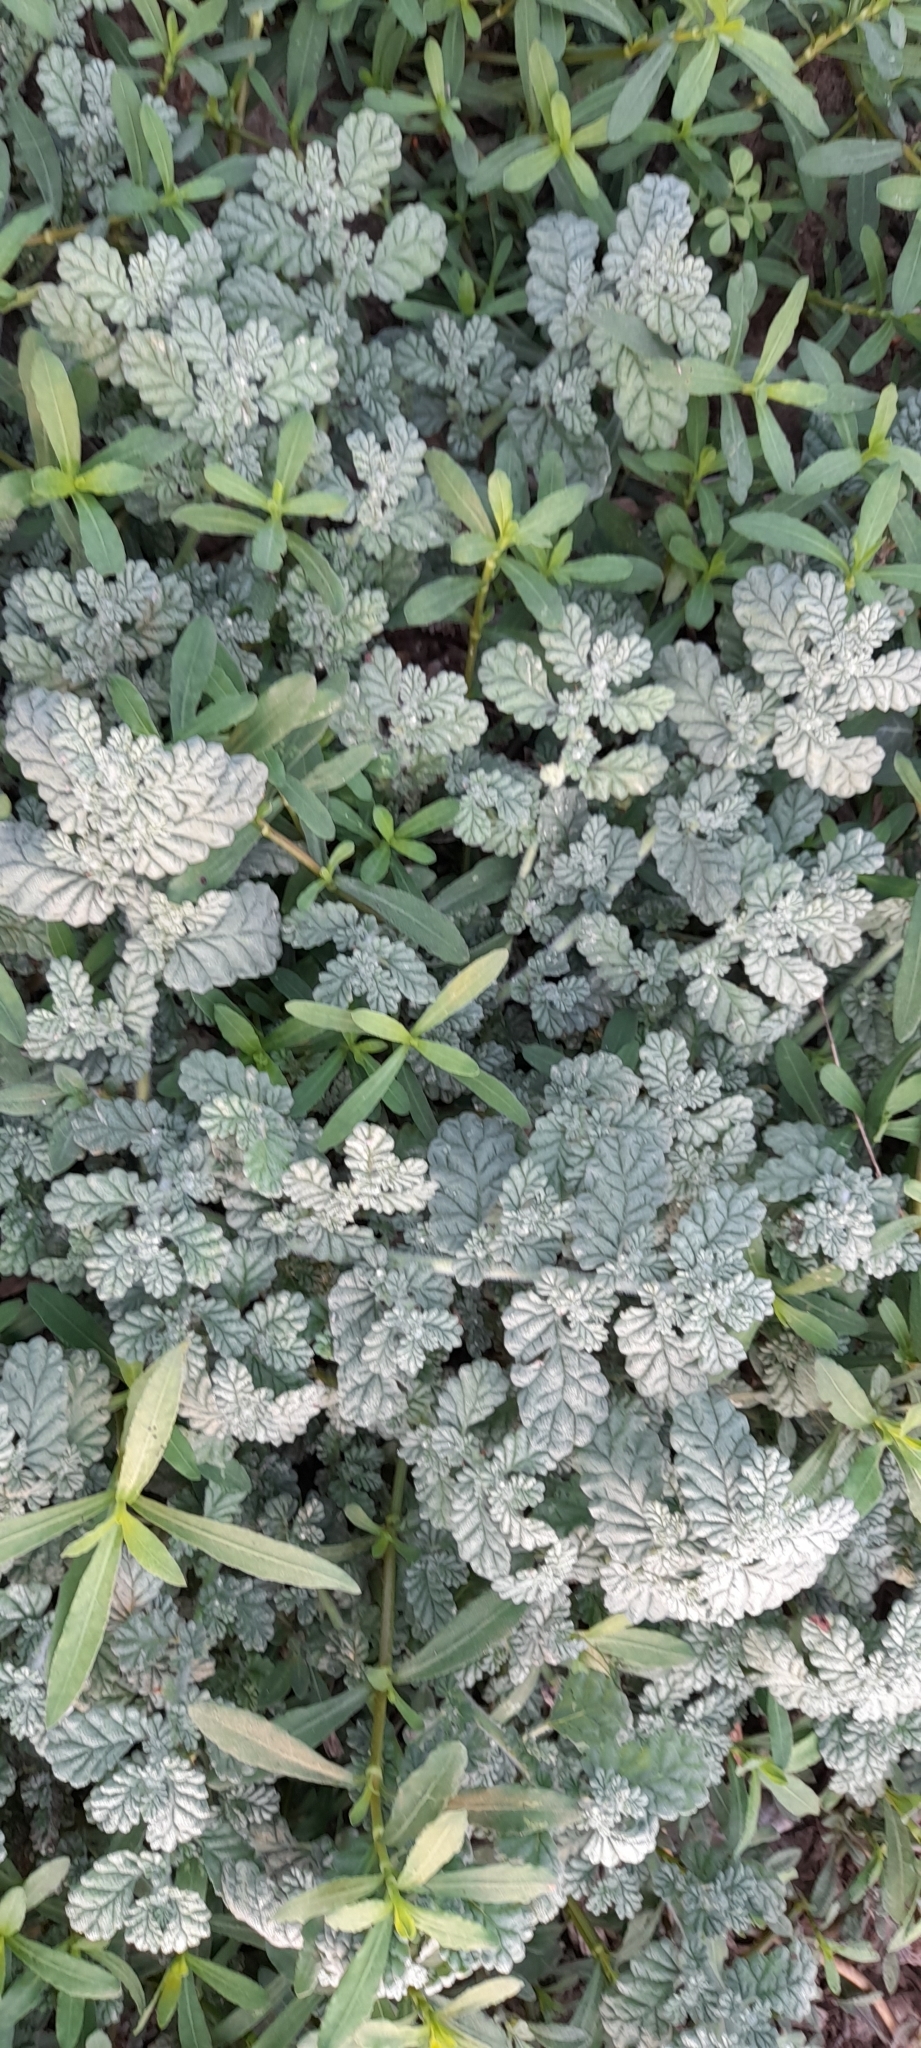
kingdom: Plantae
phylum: Tracheophyta
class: Magnoliopsida
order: Boraginales
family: Coldeniaceae
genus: Coldenia
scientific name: Coldenia procumbens
